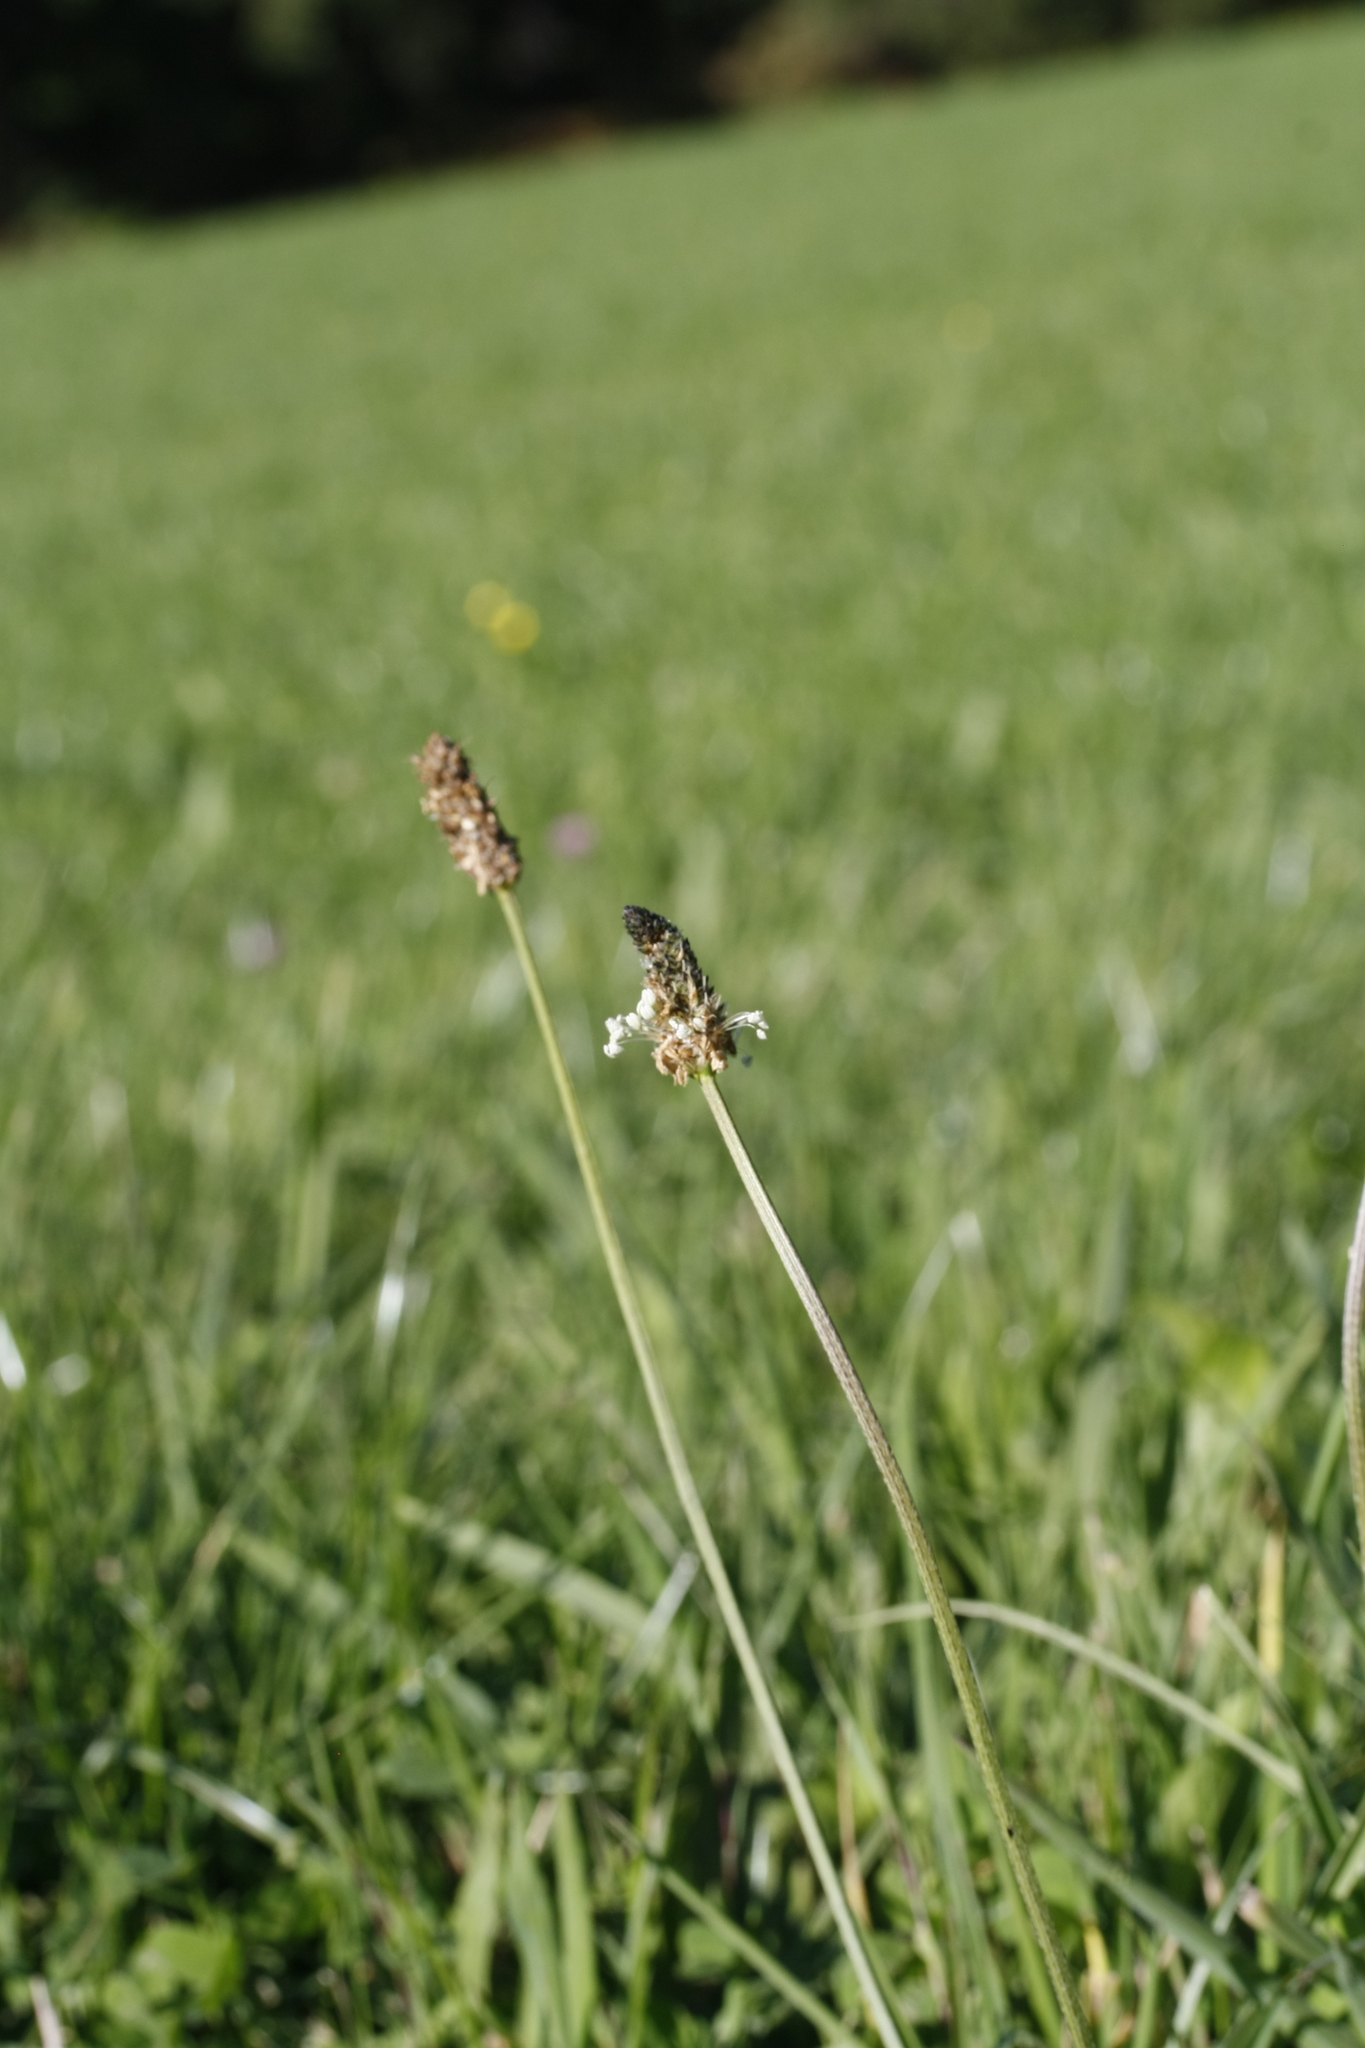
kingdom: Plantae
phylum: Tracheophyta
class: Magnoliopsida
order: Lamiales
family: Plantaginaceae
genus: Plantago
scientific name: Plantago lanceolata
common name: Ribwort plantain
